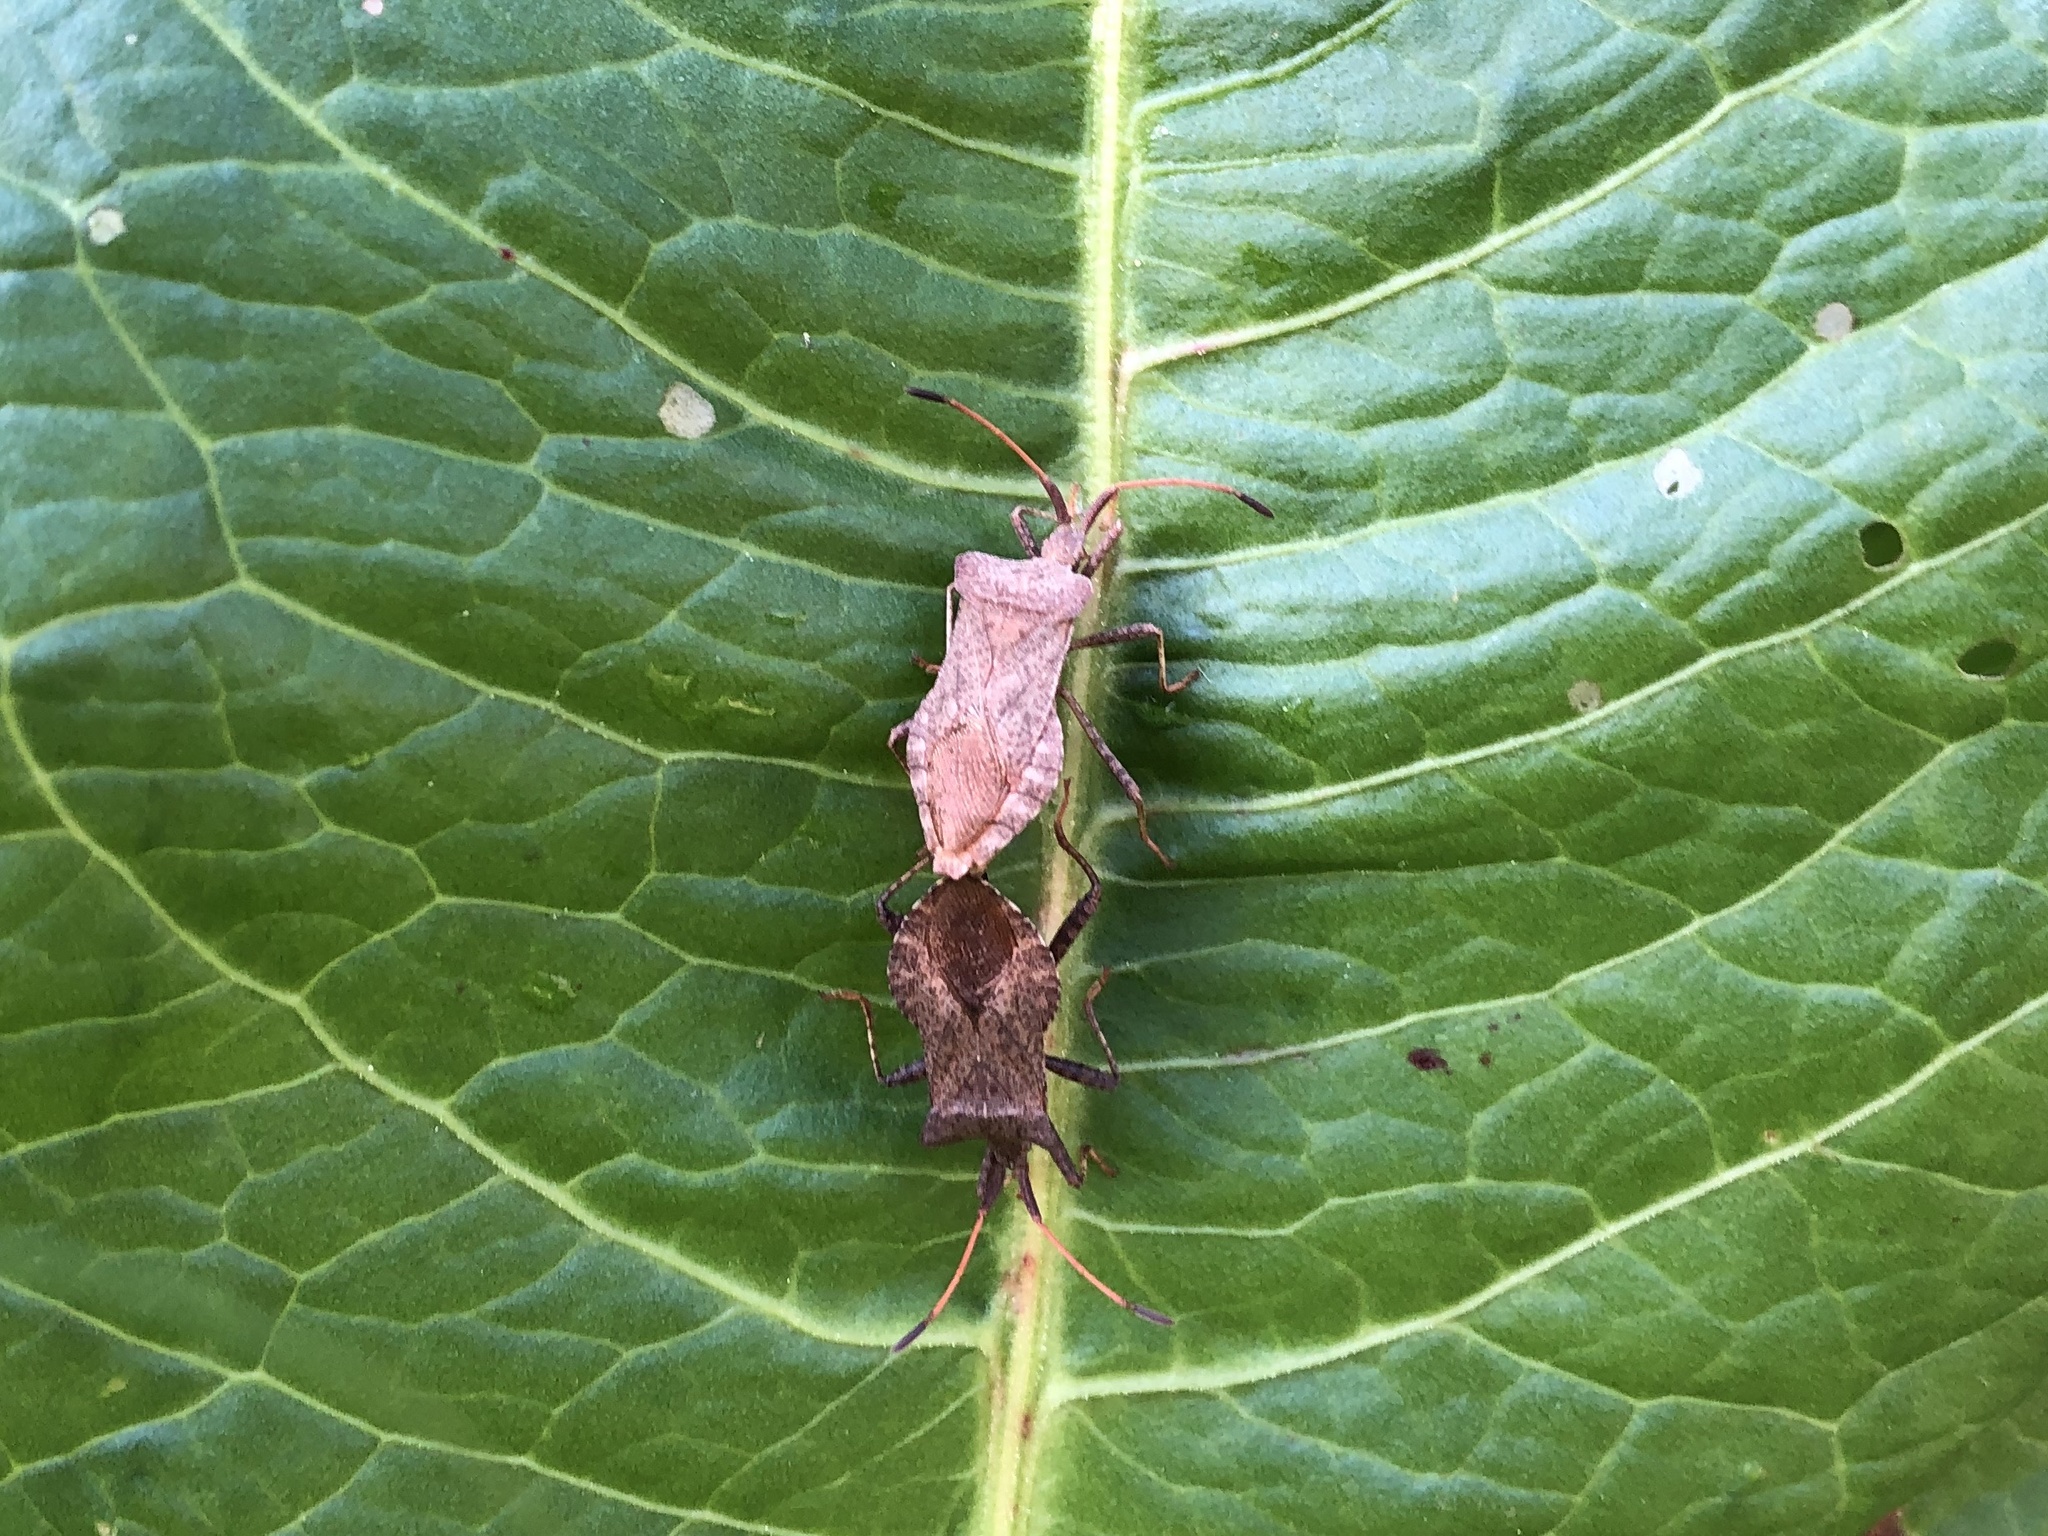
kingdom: Animalia
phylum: Arthropoda
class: Insecta
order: Hemiptera
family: Coreidae
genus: Coreus
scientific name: Coreus marginatus
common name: Dock bug
